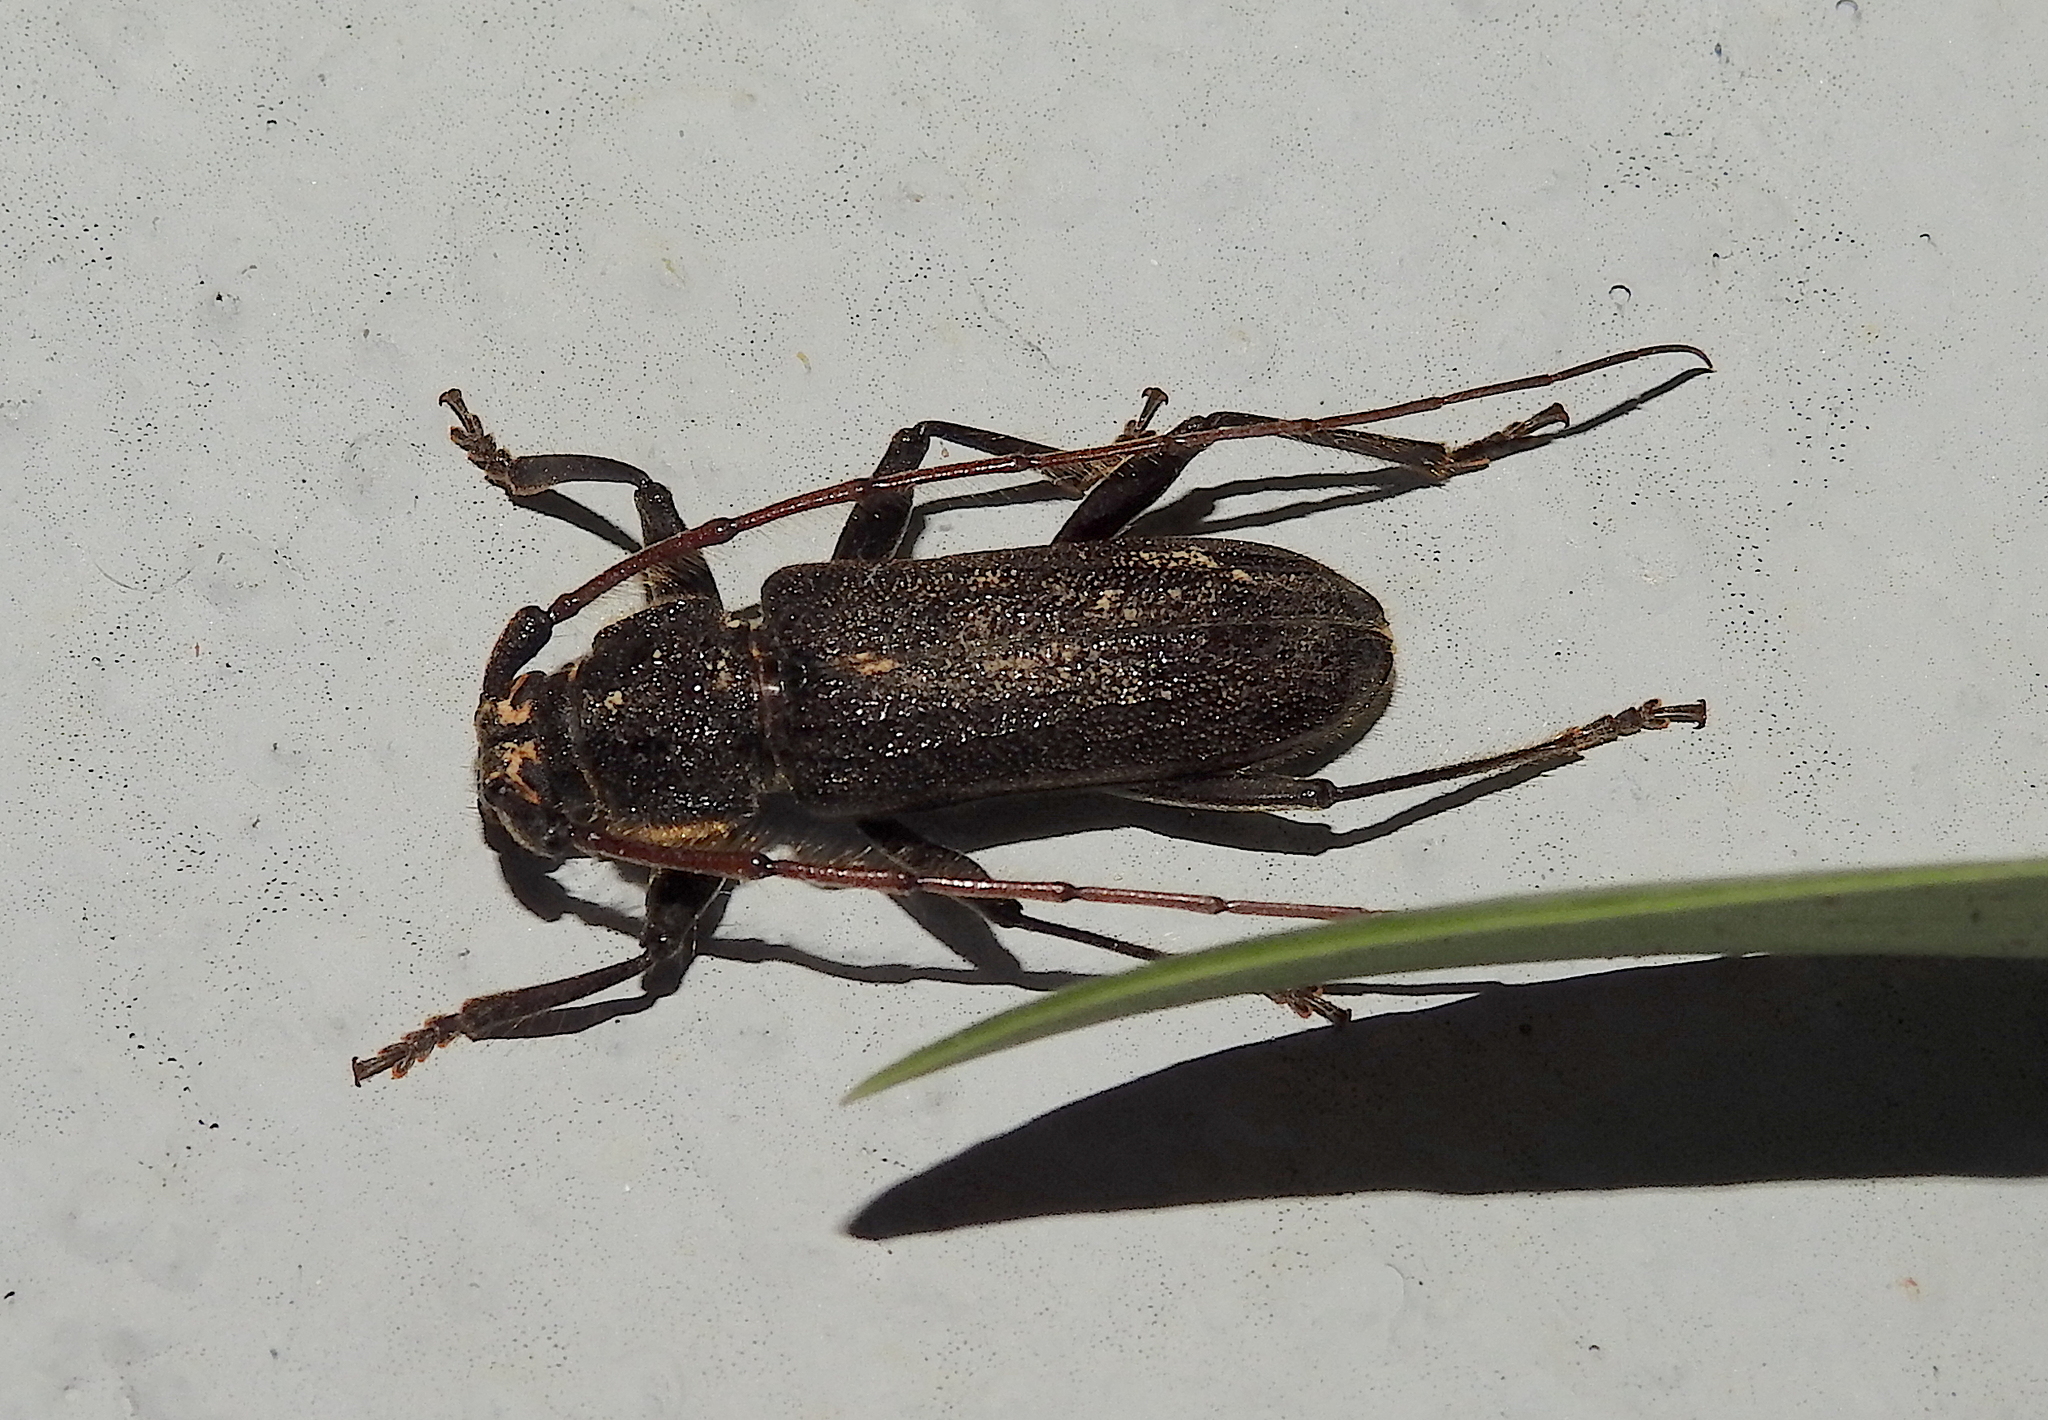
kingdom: Animalia
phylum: Arthropoda
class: Insecta
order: Coleoptera
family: Cerambycidae
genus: Stromatium
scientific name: Stromatium barbatum
